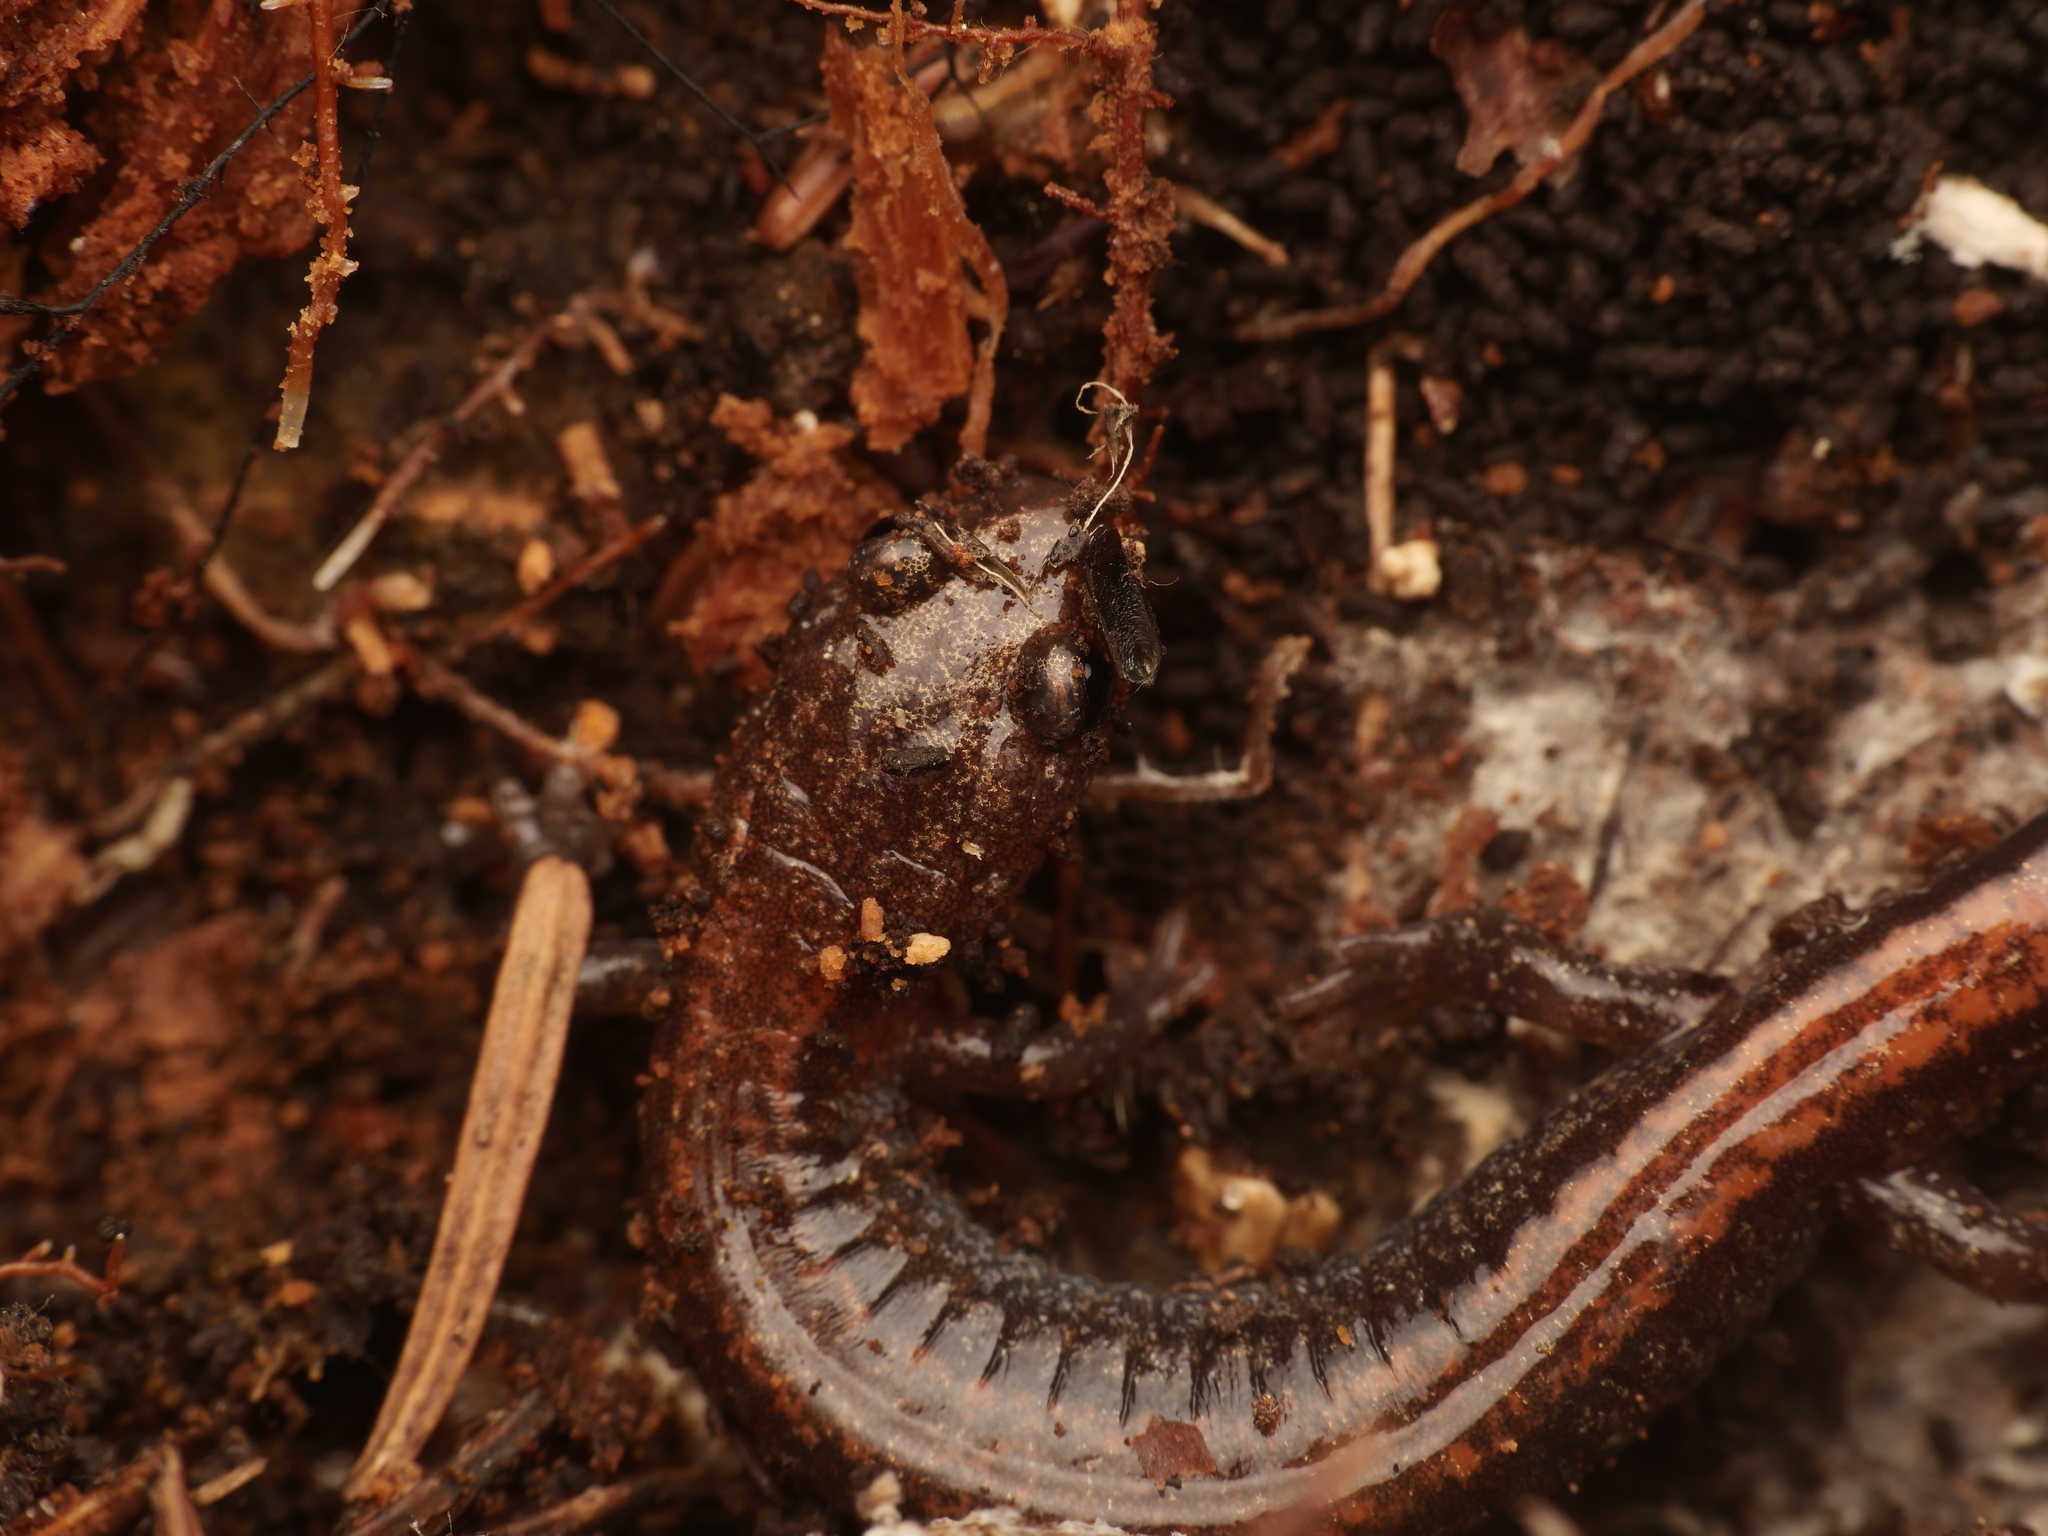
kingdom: Animalia
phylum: Chordata
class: Amphibia
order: Caudata
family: Plethodontidae
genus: Plethodon
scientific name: Plethodon cinereus
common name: Redback salamander
